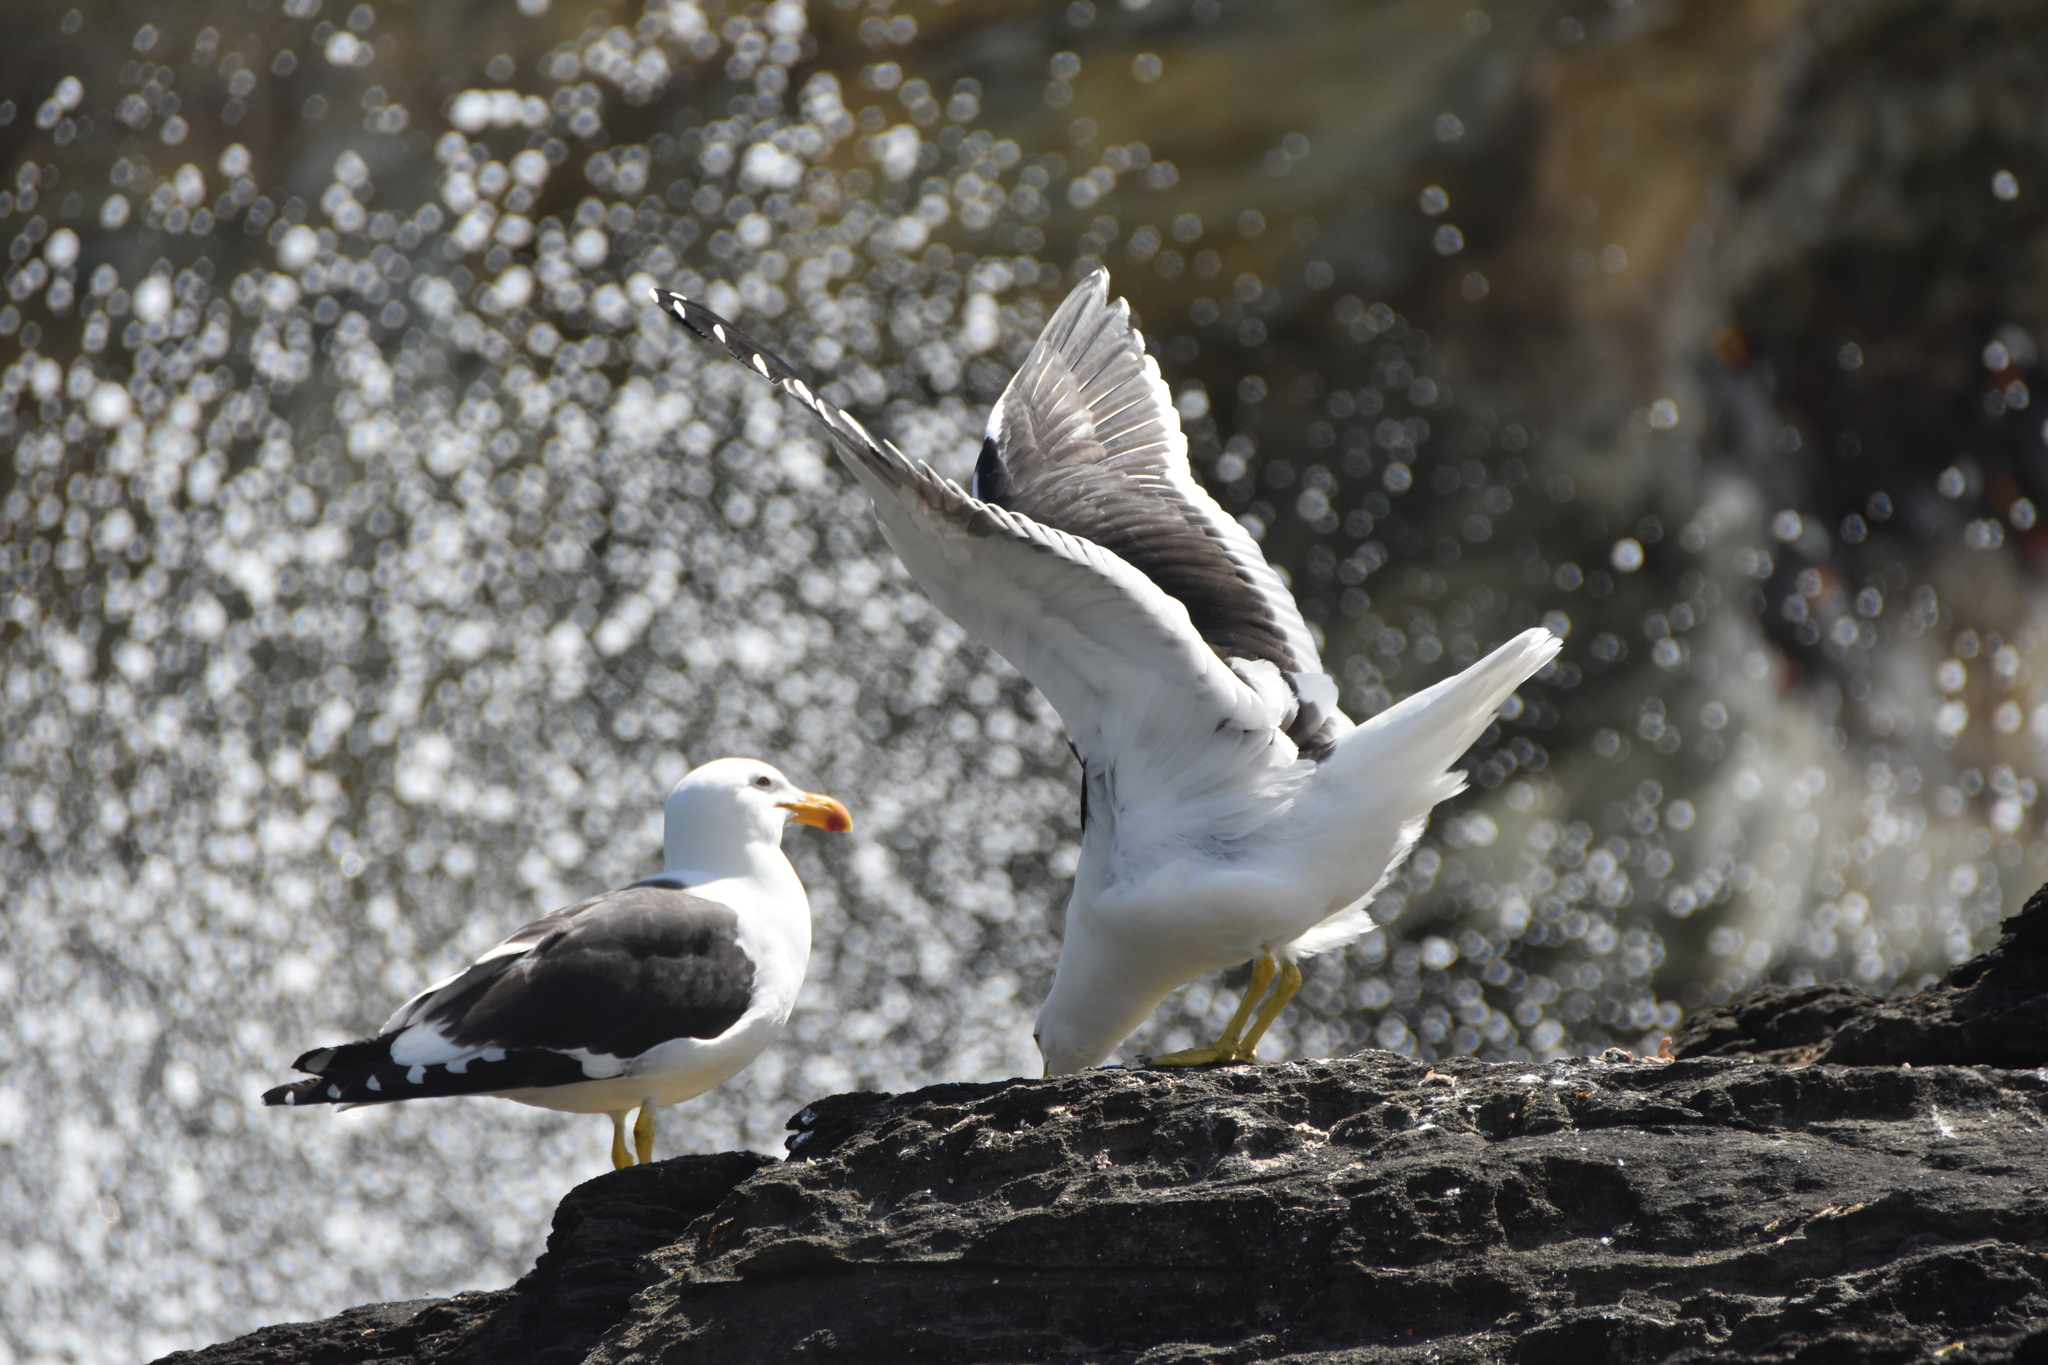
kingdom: Animalia
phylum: Chordata
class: Aves
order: Charadriiformes
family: Laridae
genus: Larus
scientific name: Larus dominicanus
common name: Kelp gull
